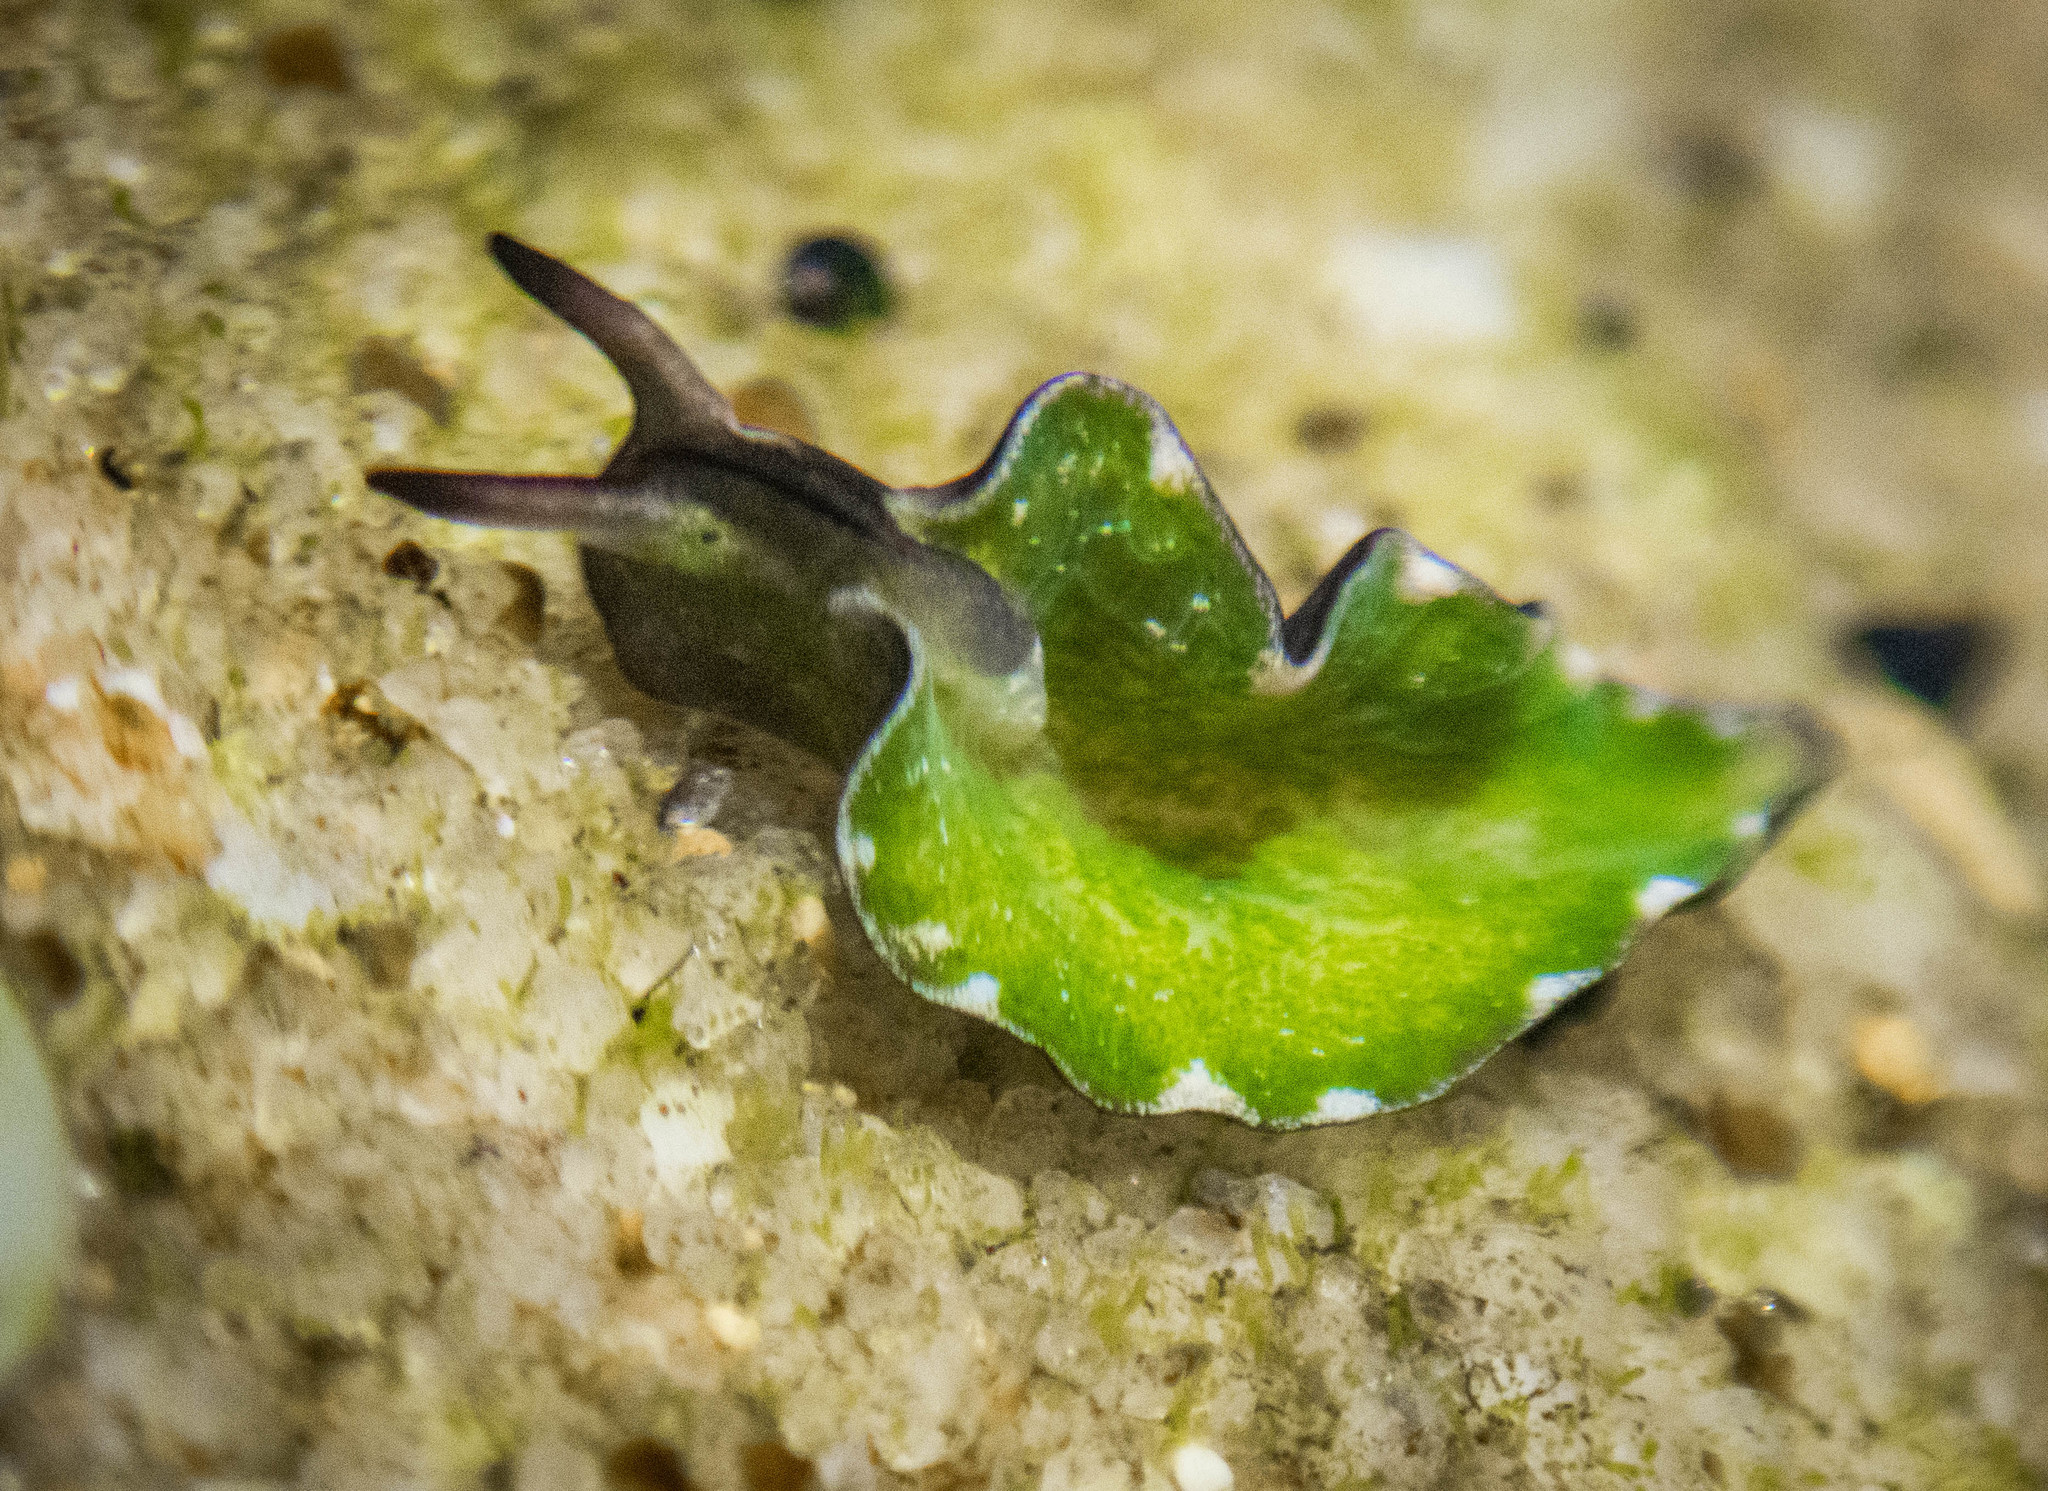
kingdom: Animalia
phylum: Mollusca
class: Gastropoda
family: Plakobranchidae
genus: Elysia
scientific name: Elysia coodgeensis
